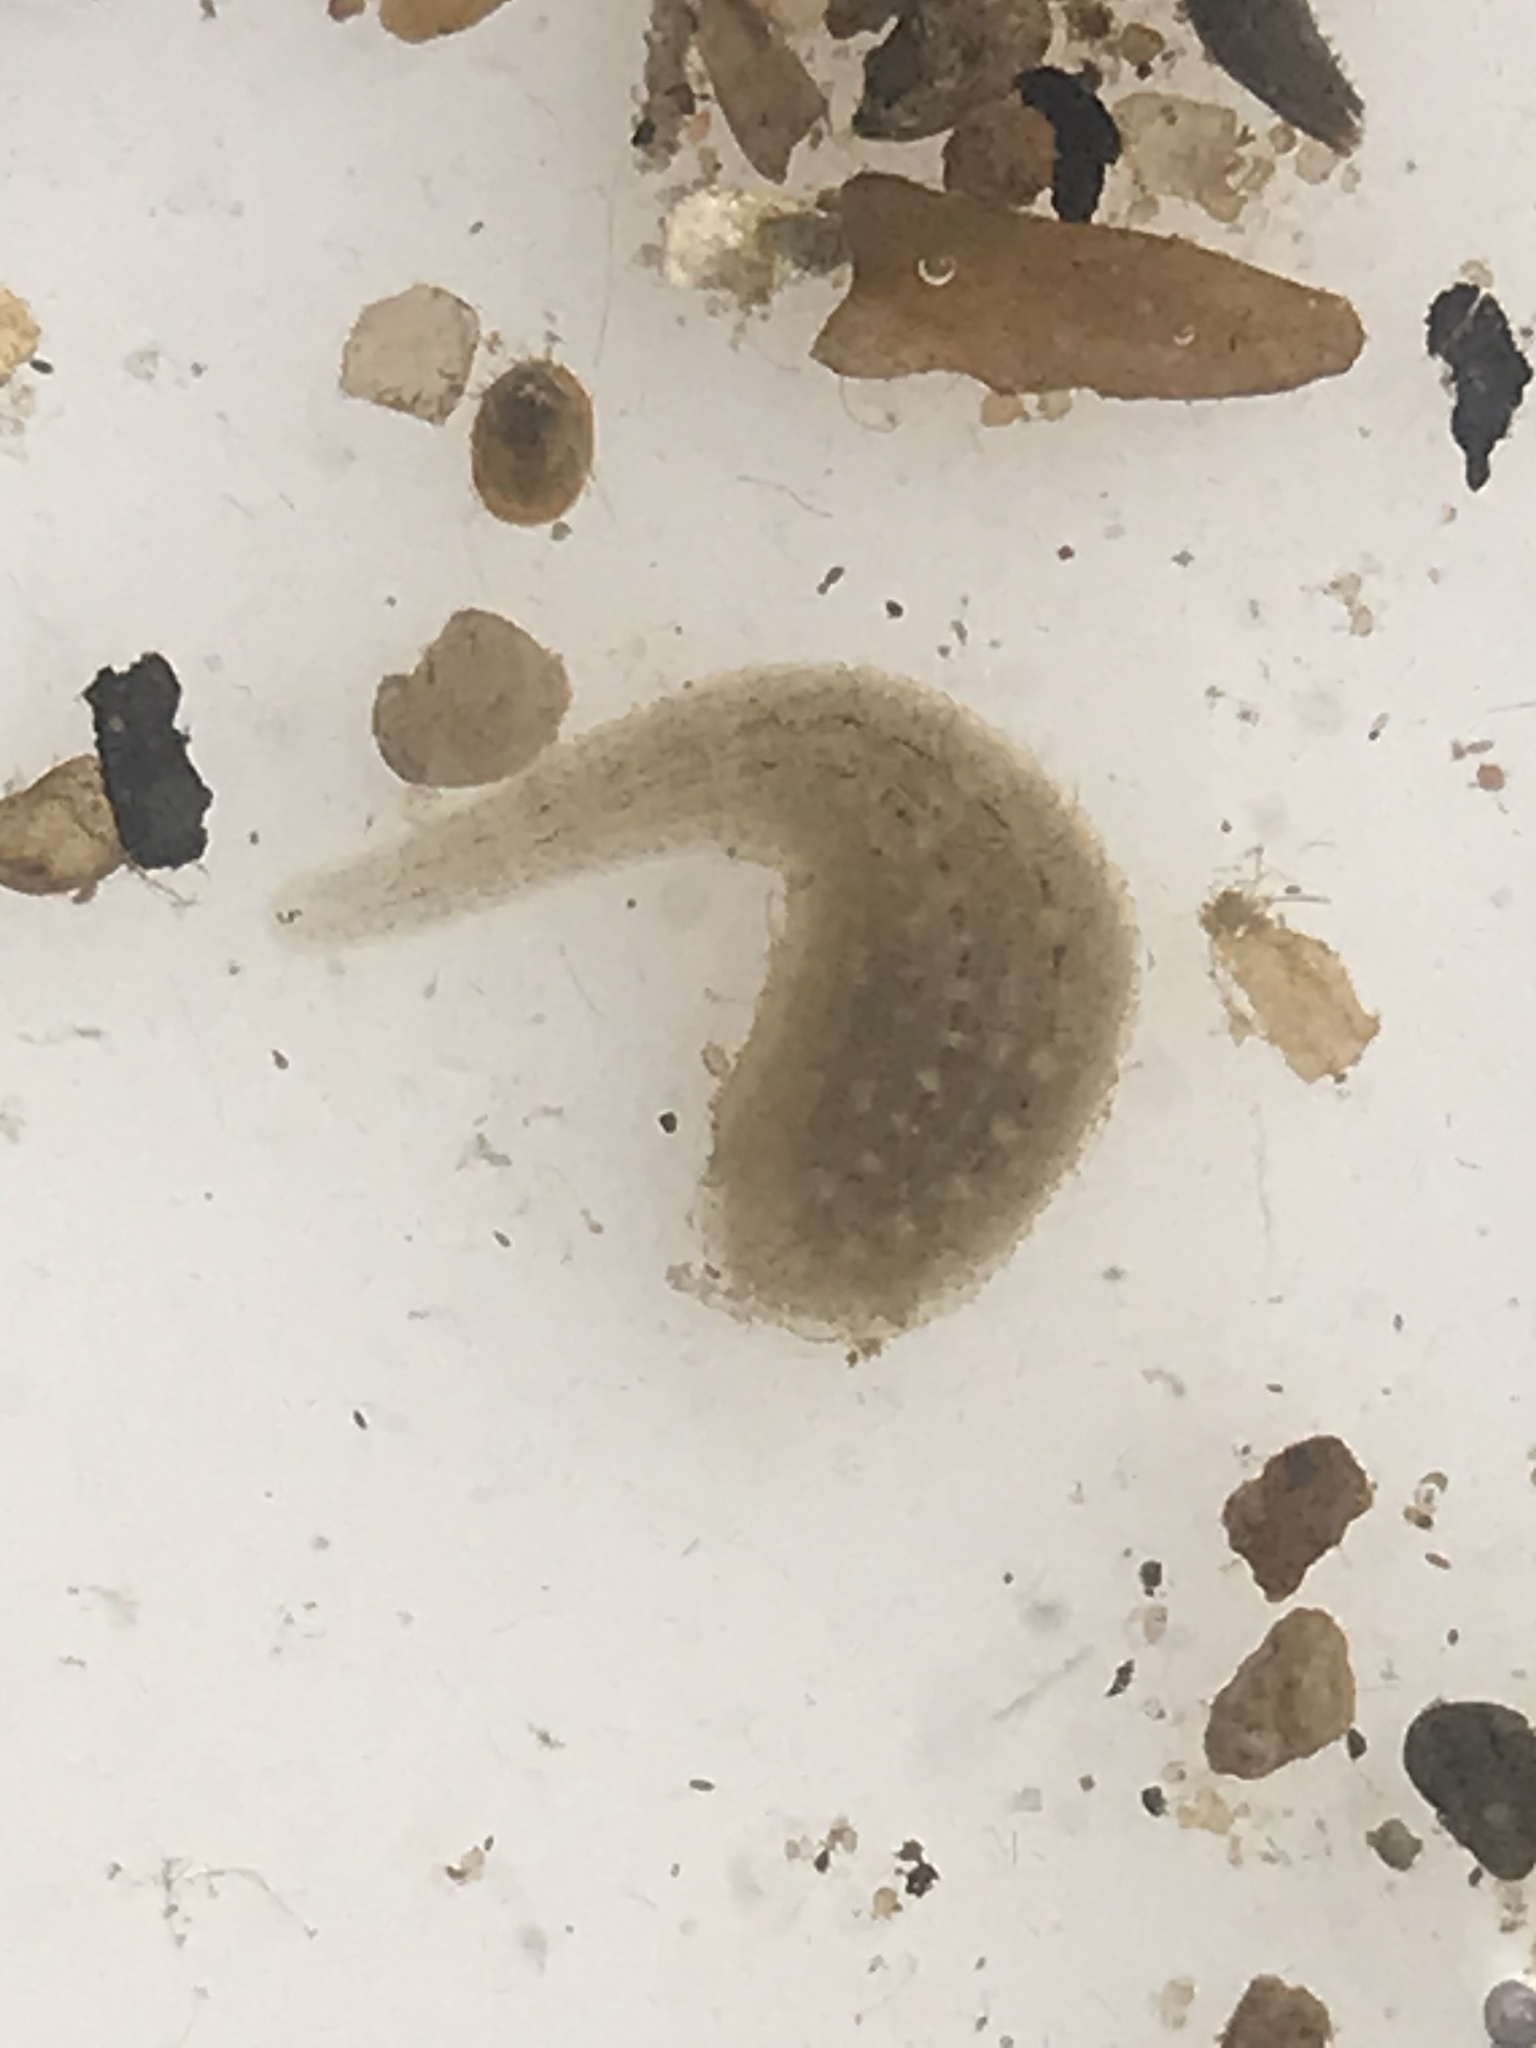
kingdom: Animalia
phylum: Annelida
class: Clitellata
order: Rhynchobdellida
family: Glossiphoniidae
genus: Glossiphonia
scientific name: Glossiphonia complanata
